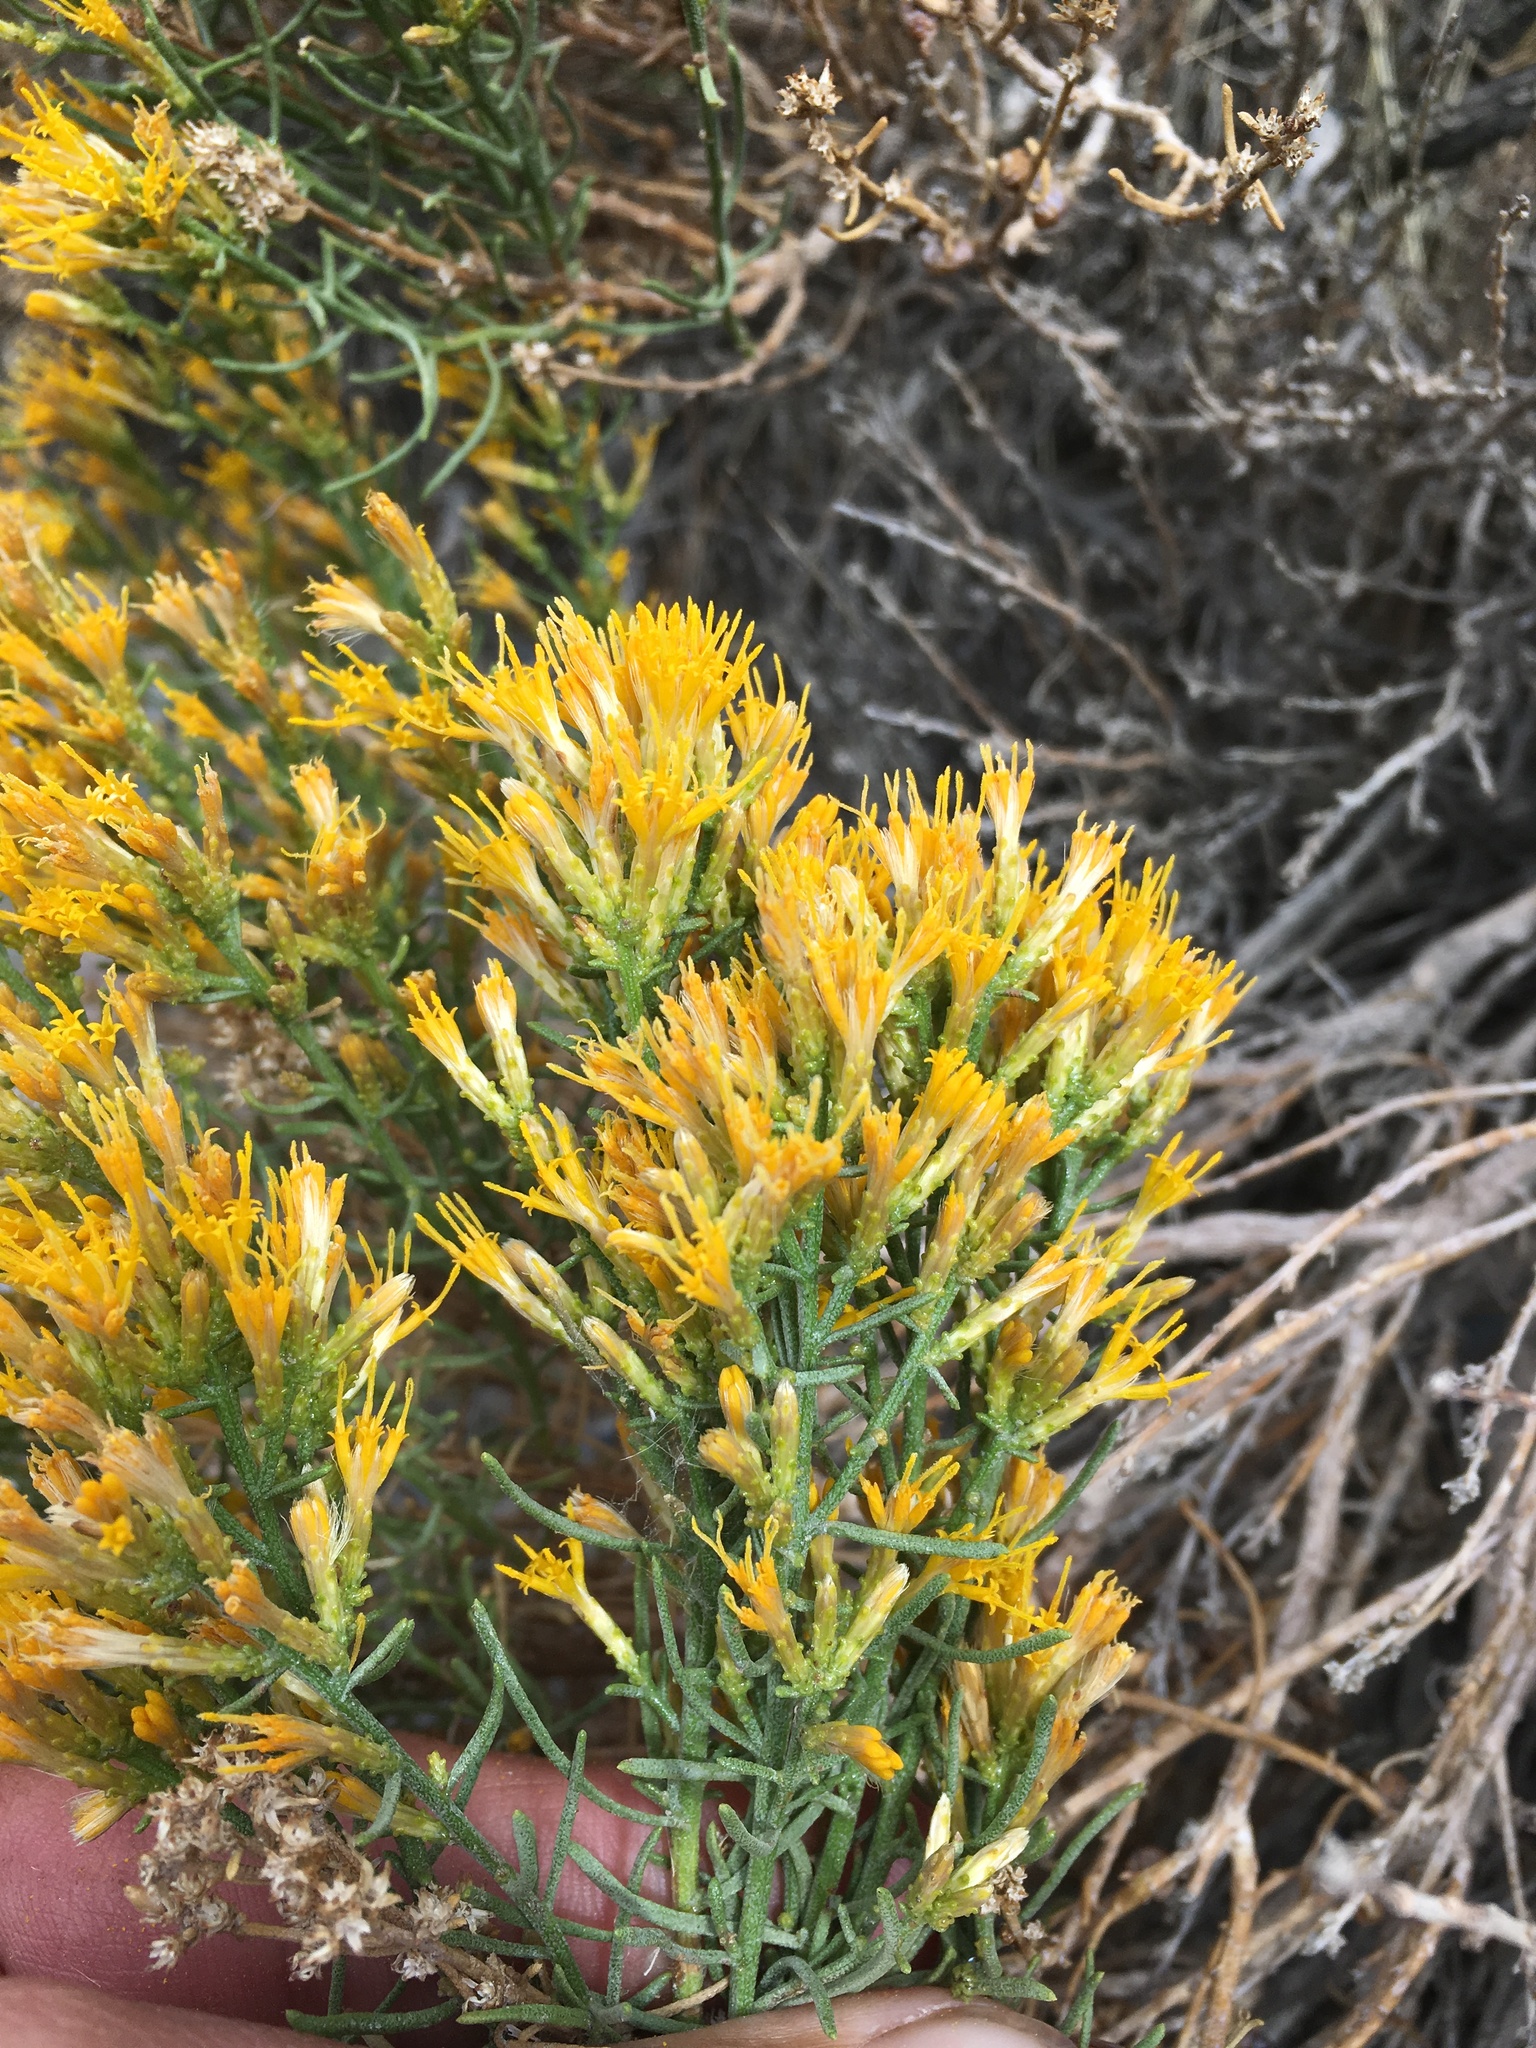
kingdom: Plantae
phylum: Tracheophyta
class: Magnoliopsida
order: Asterales
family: Asteraceae
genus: Ericameria
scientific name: Ericameria teretifolia
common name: Round-leaf rabbitbrush
